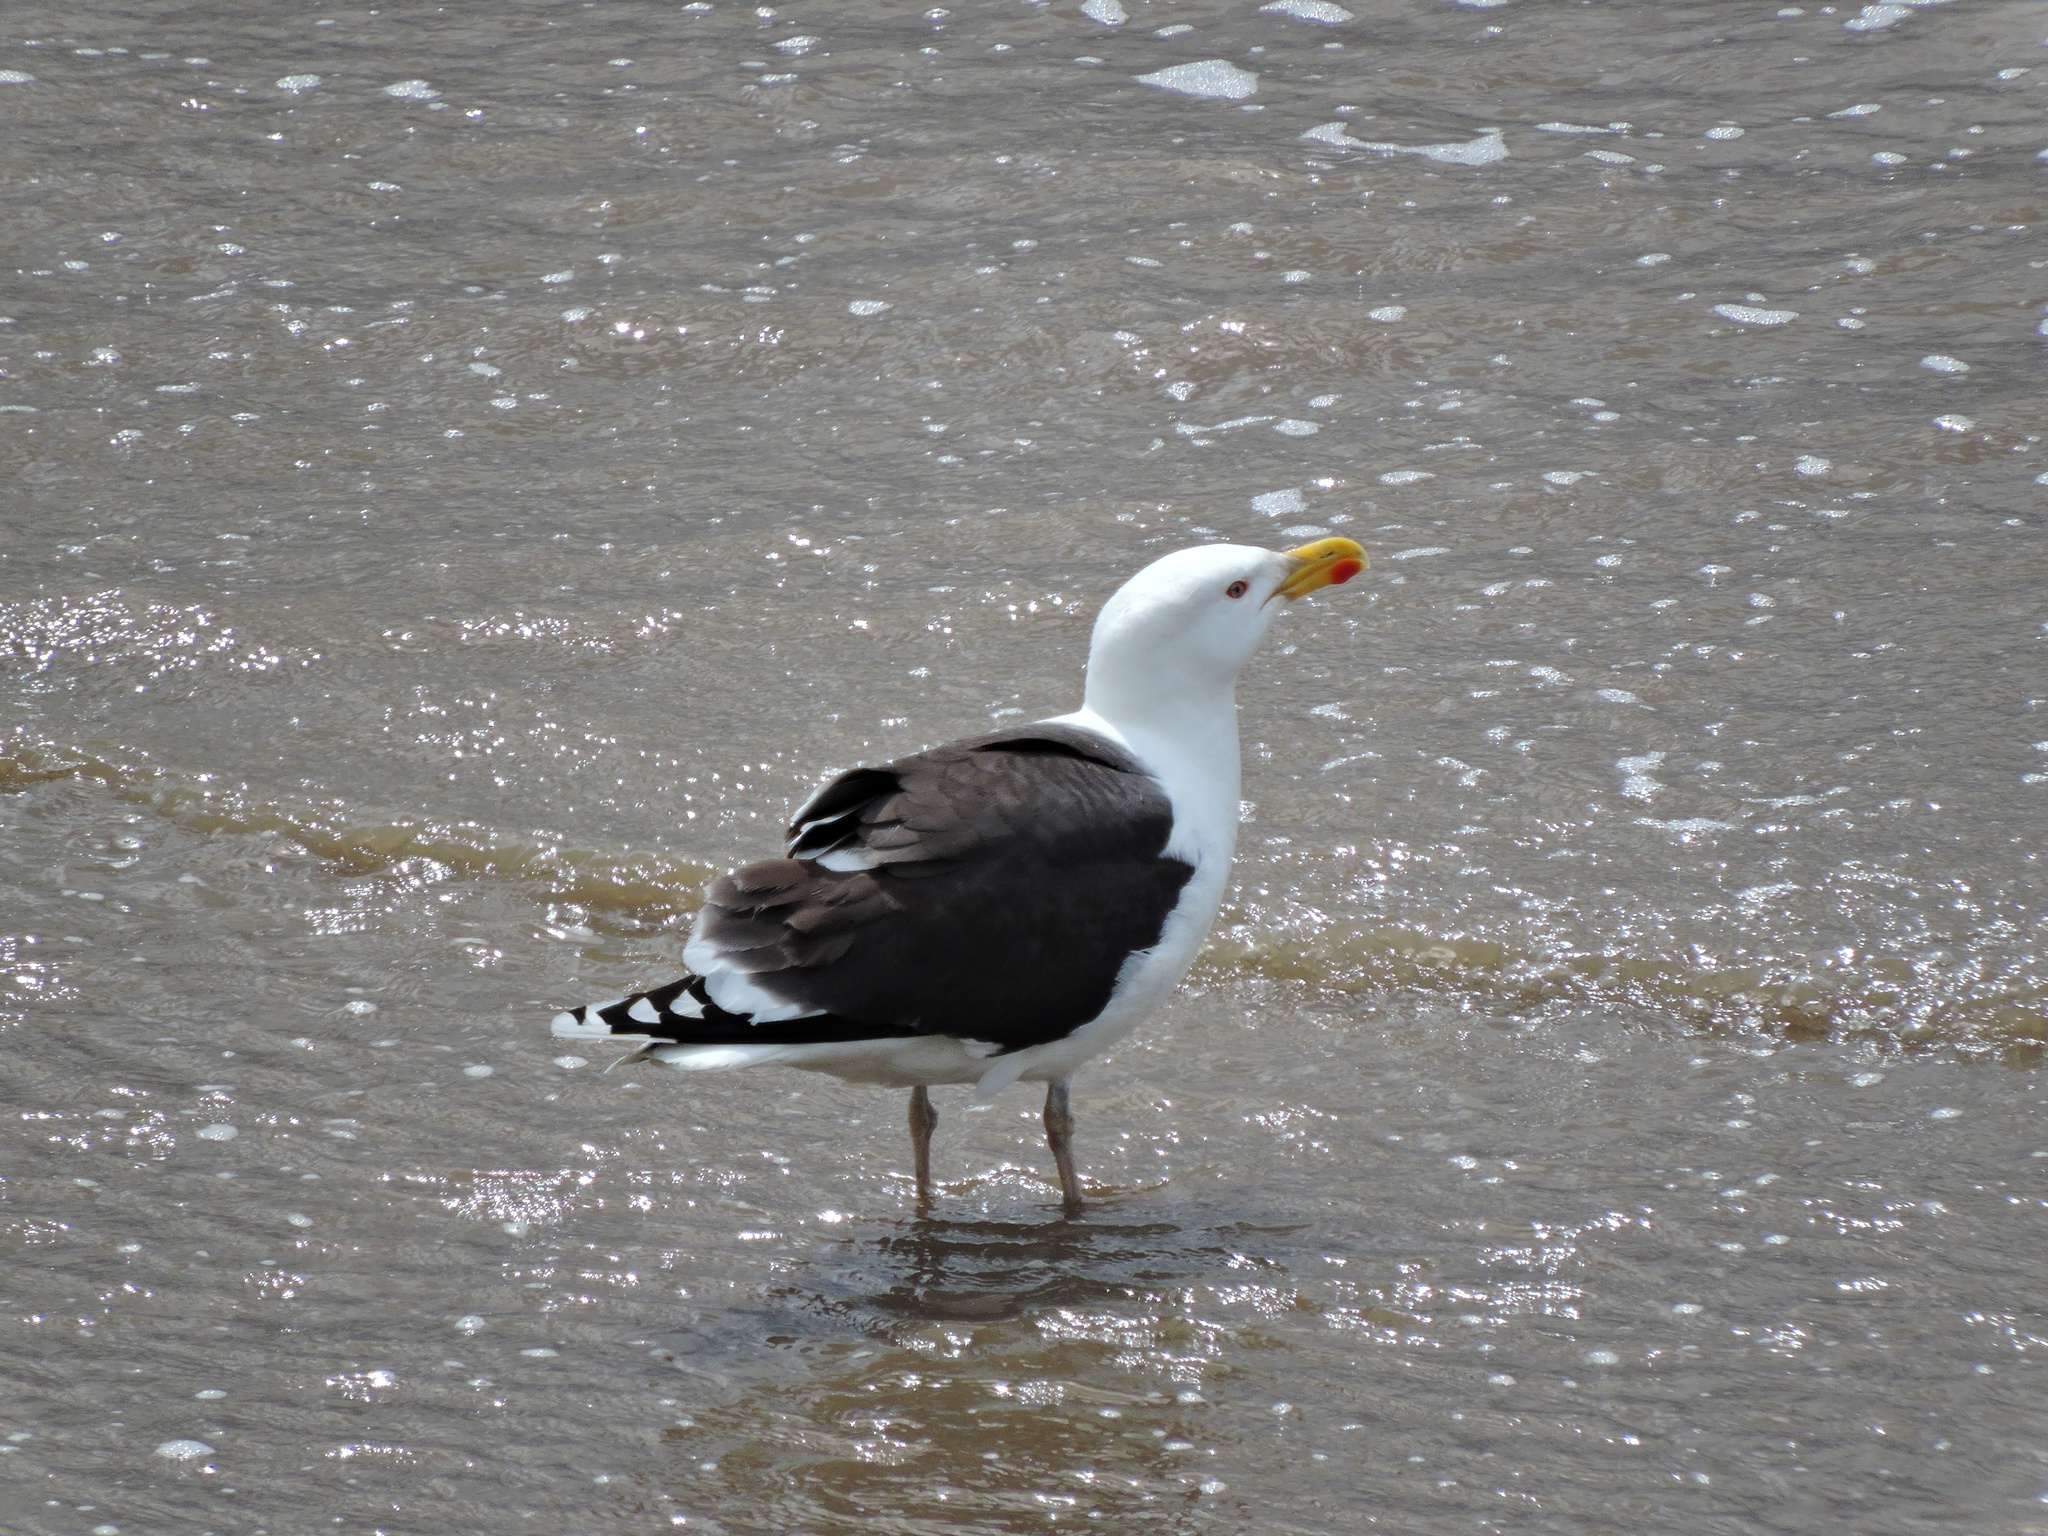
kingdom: Animalia
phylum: Chordata
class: Aves
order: Charadriiformes
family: Laridae
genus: Larus
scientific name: Larus marinus
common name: Great black-backed gull
